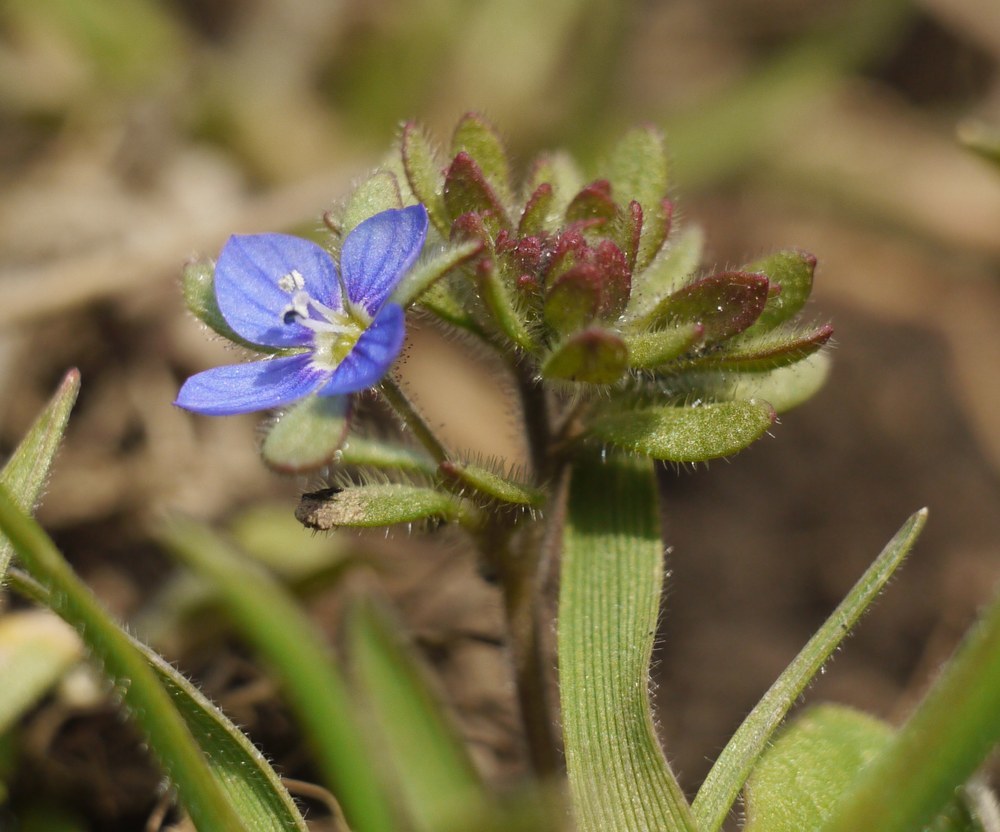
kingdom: Plantae
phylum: Tracheophyta
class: Magnoliopsida
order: Lamiales
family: Plantaginaceae
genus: Veronica
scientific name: Veronica triphyllos
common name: Fingered speedwell
